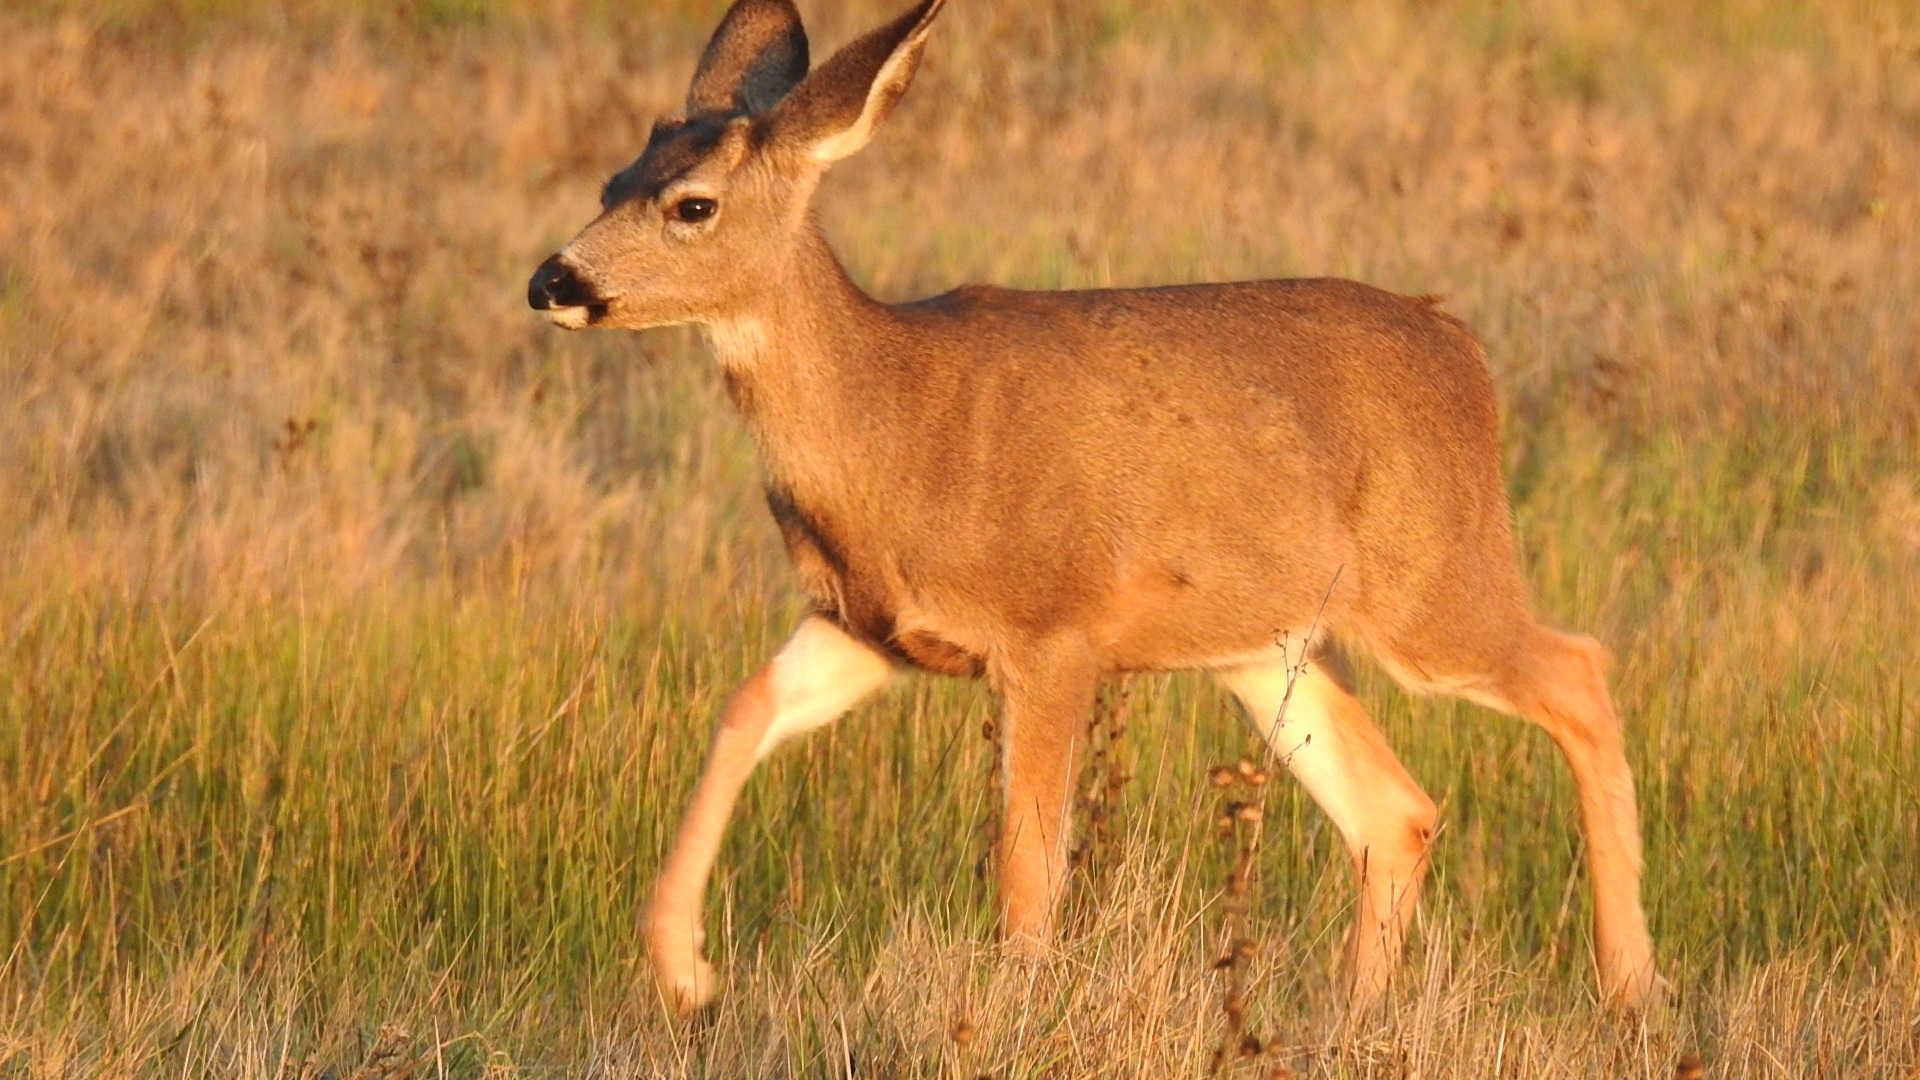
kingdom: Animalia
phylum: Chordata
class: Mammalia
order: Artiodactyla
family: Cervidae
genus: Odocoileus
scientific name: Odocoileus hemionus
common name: Mule deer
